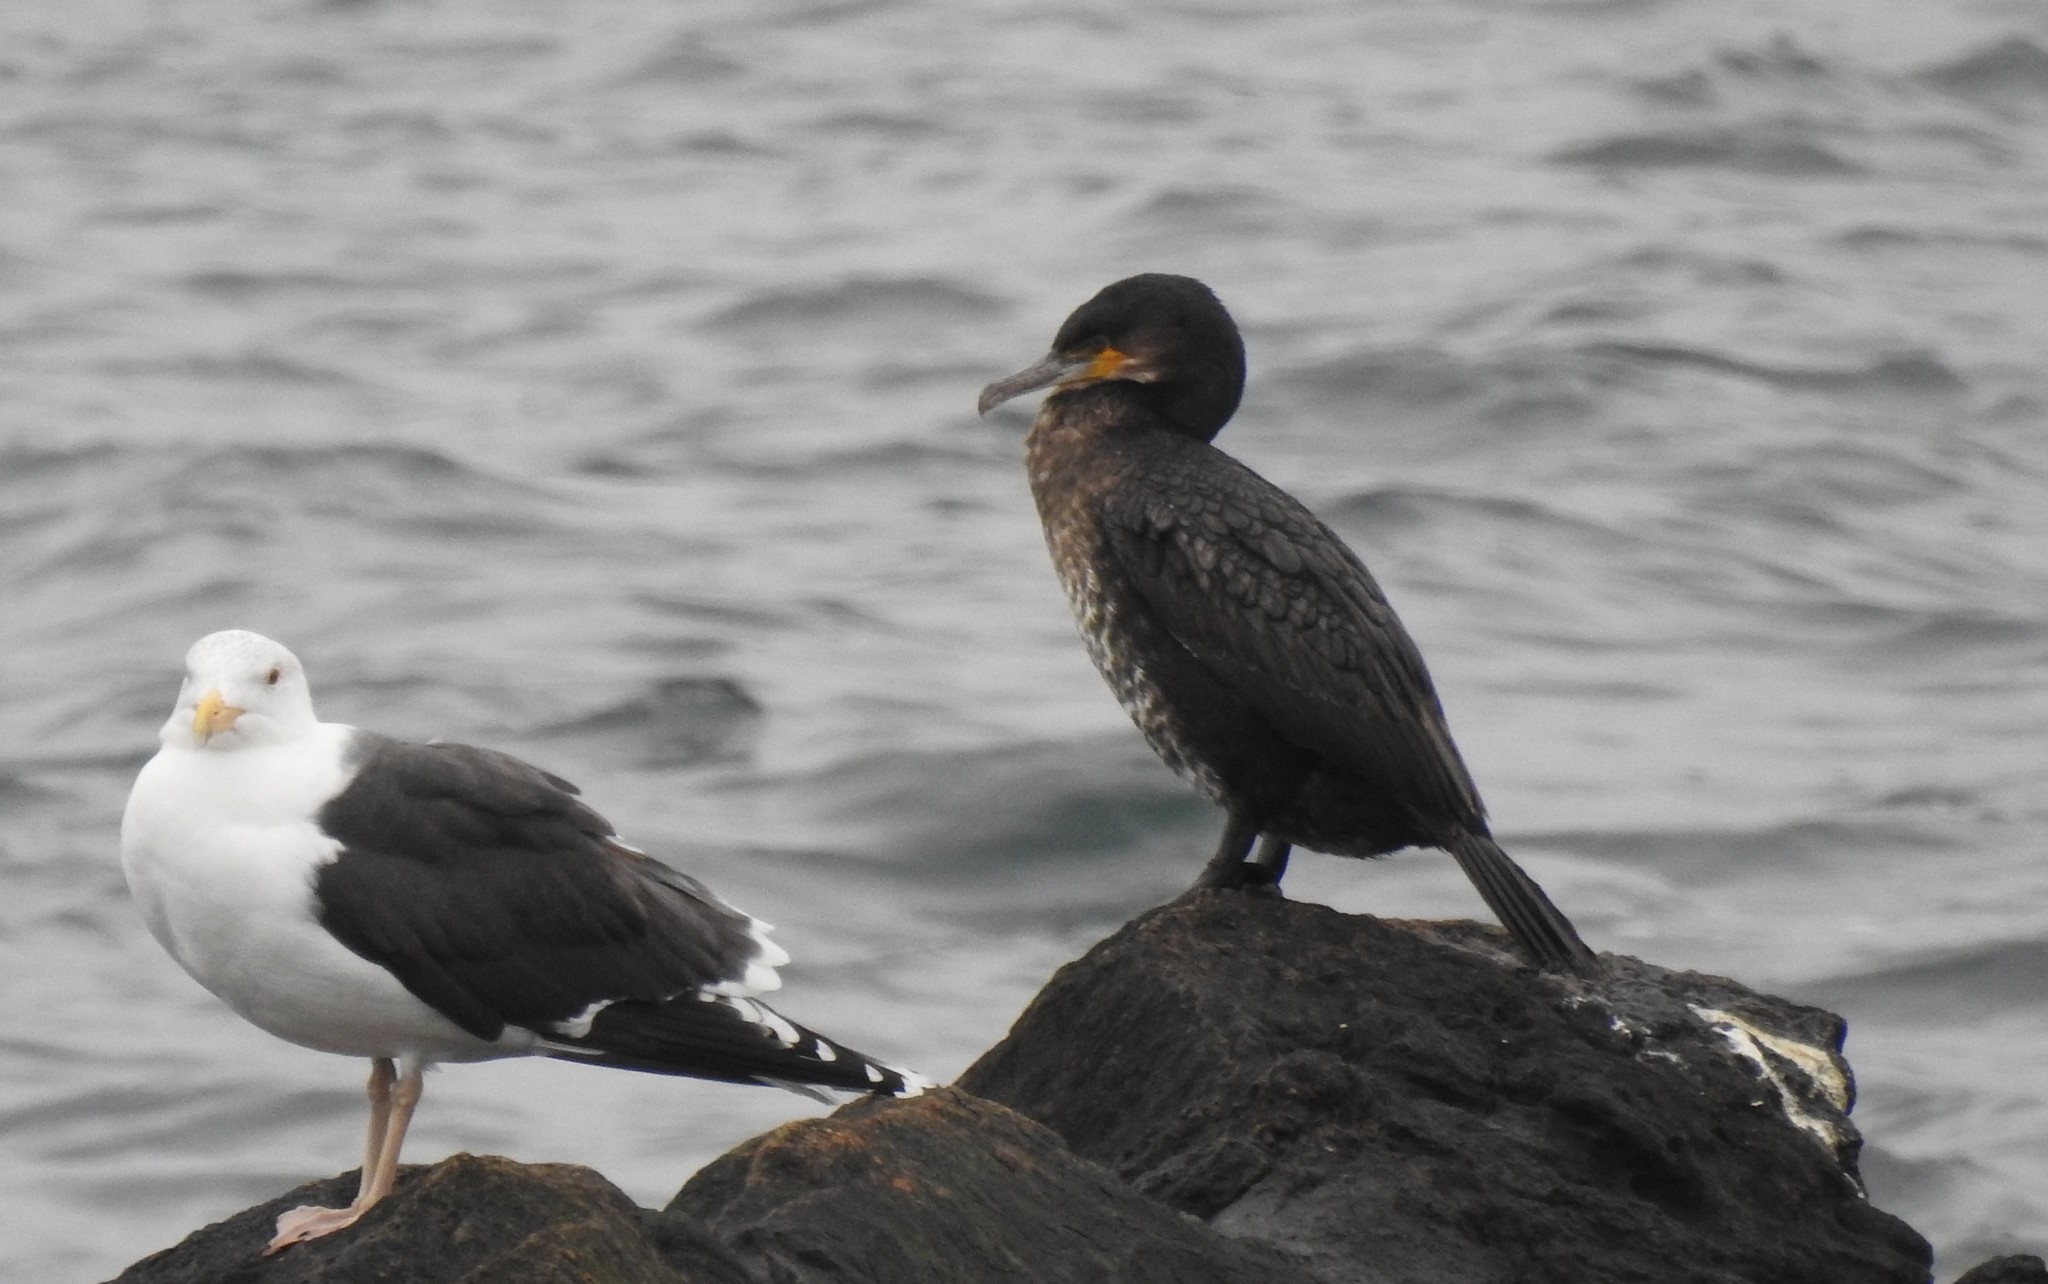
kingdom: Animalia
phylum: Chordata
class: Aves
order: Suliformes
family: Phalacrocoracidae
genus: Phalacrocorax
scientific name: Phalacrocorax carbo
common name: Great cormorant
